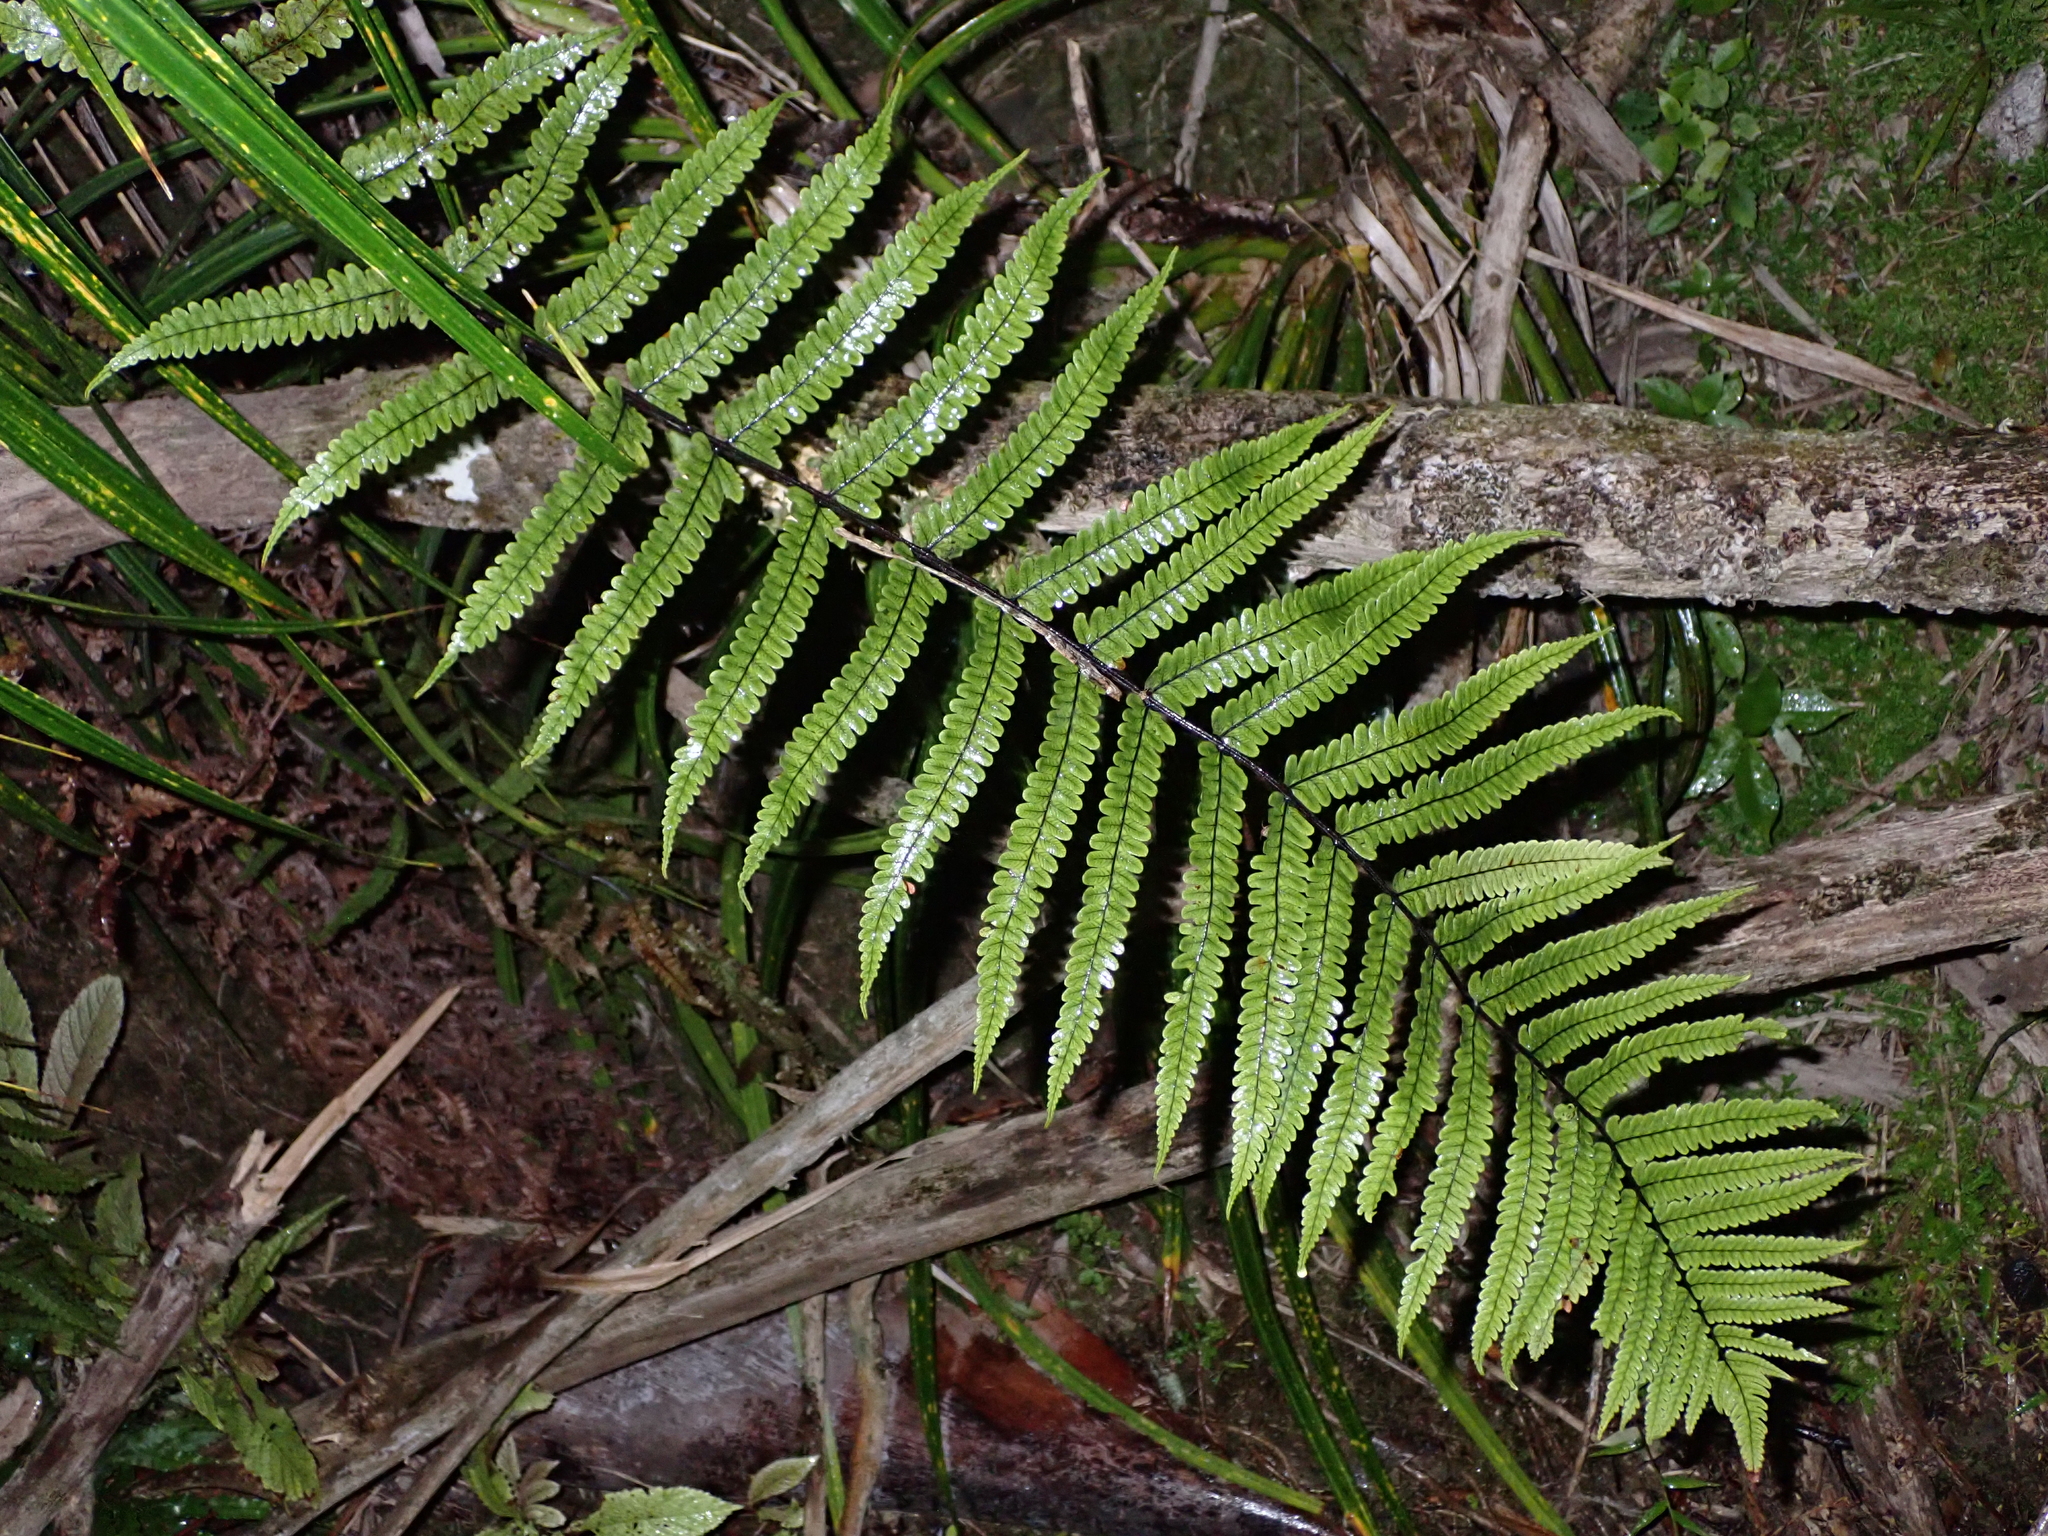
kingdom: Plantae
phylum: Tracheophyta
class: Polypodiopsida
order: Polypodiales
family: Thelypteridaceae
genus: Pakau
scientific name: Pakau pennigera
